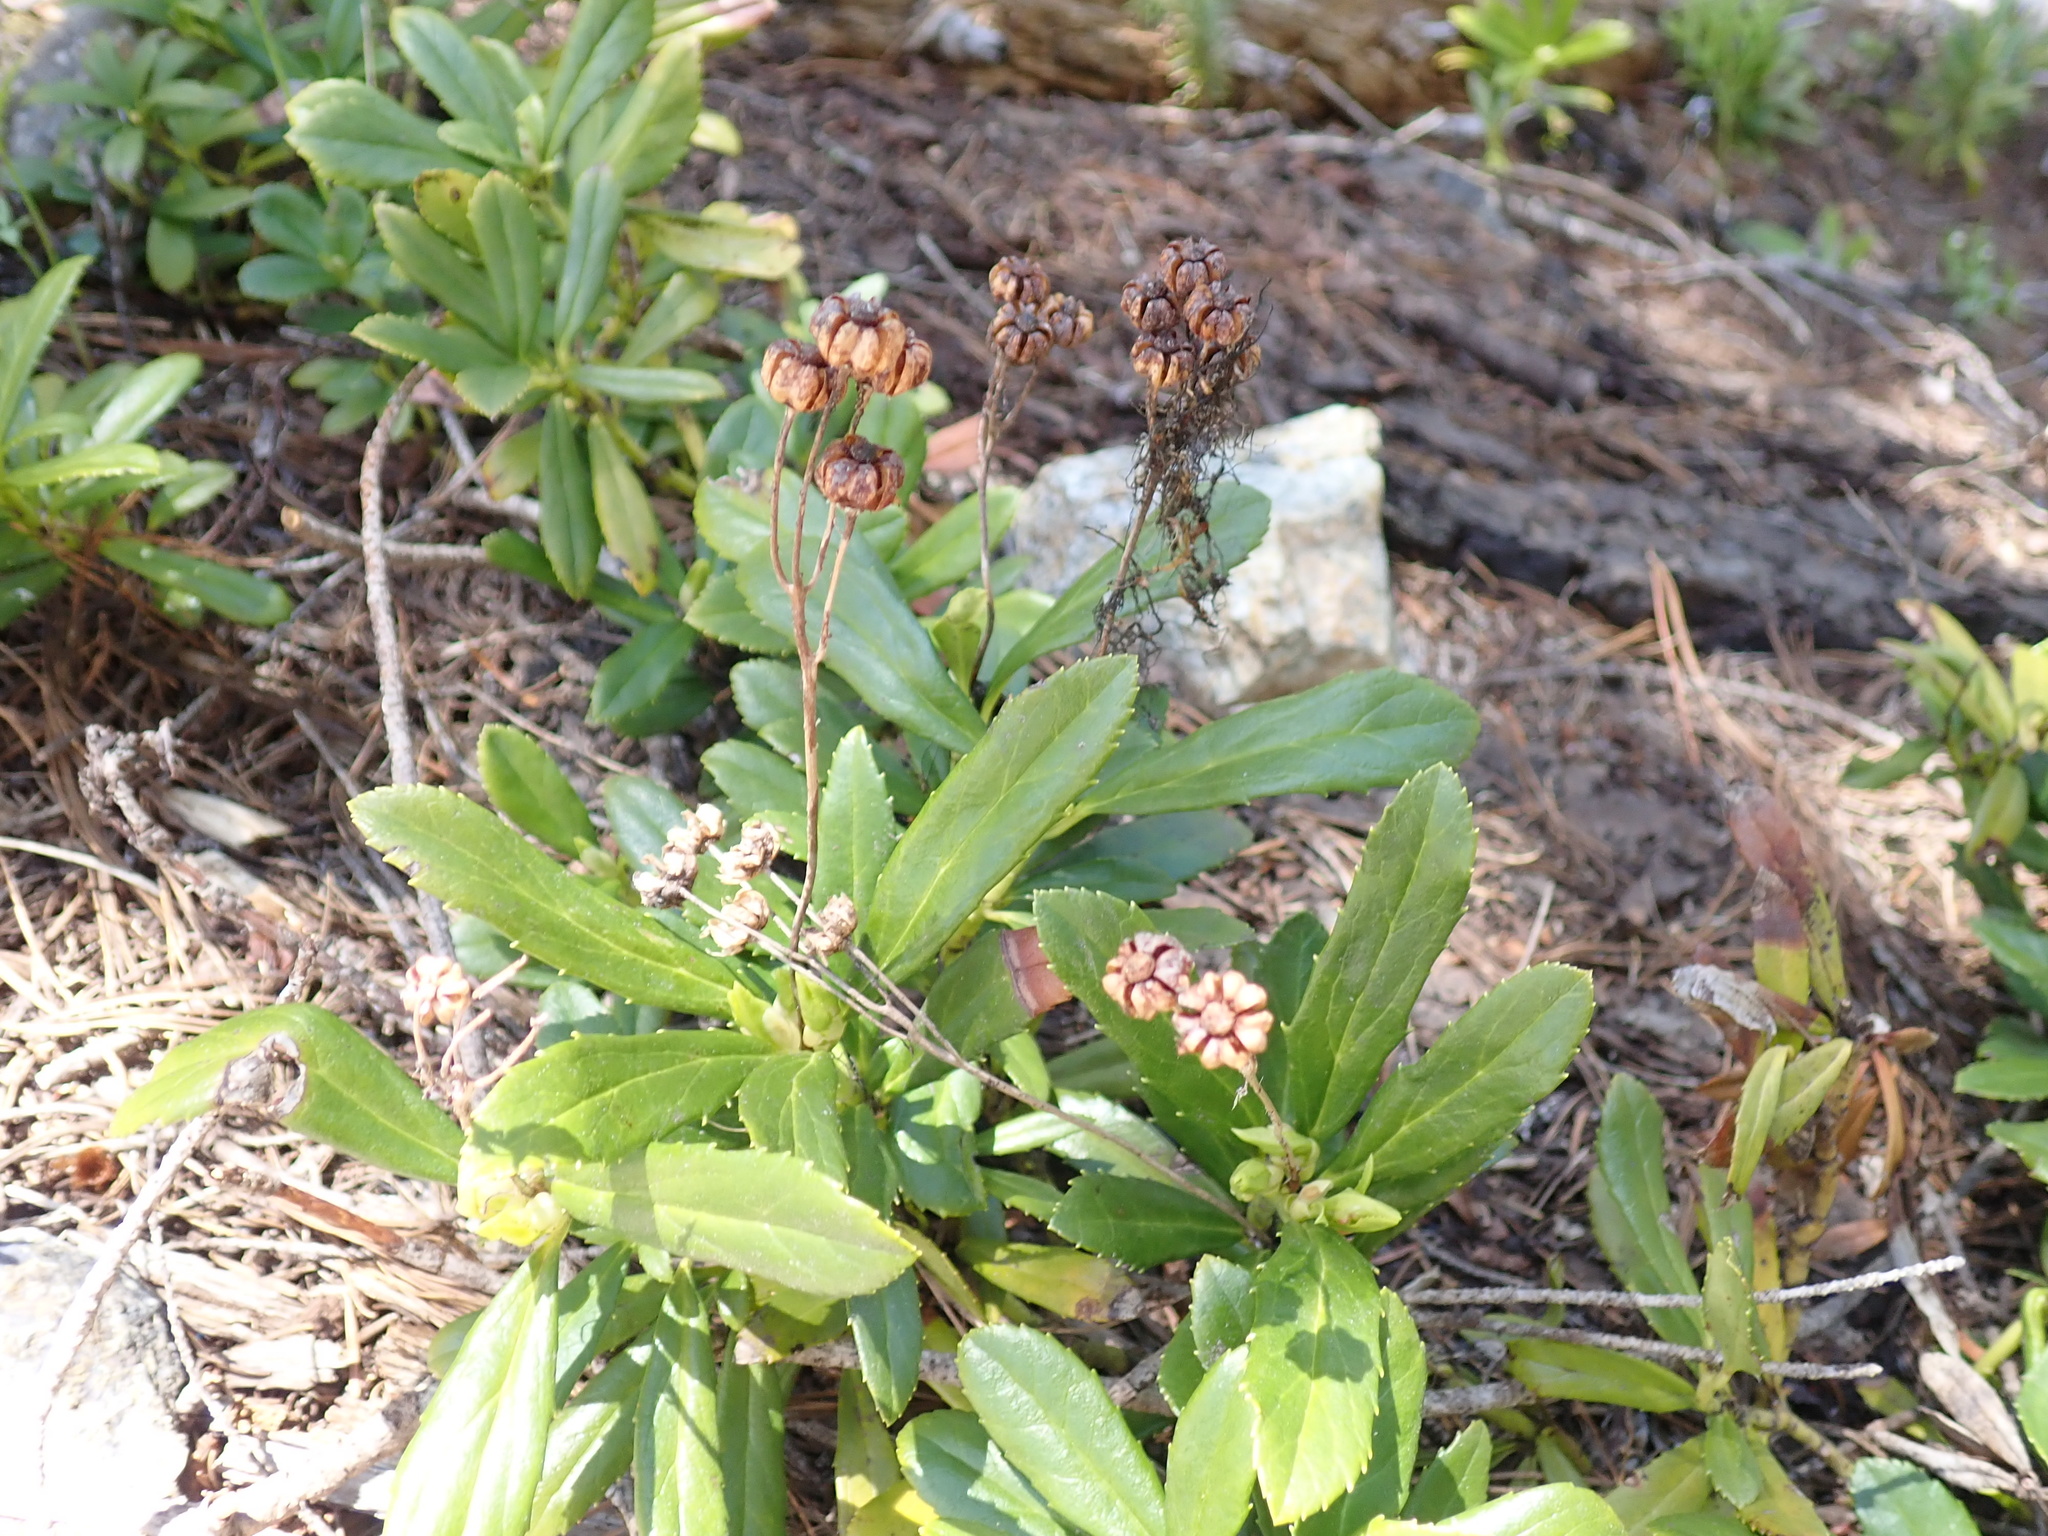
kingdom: Plantae
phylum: Tracheophyta
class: Magnoliopsida
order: Ericales
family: Ericaceae
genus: Chimaphila
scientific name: Chimaphila umbellata
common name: Pipsissewa
